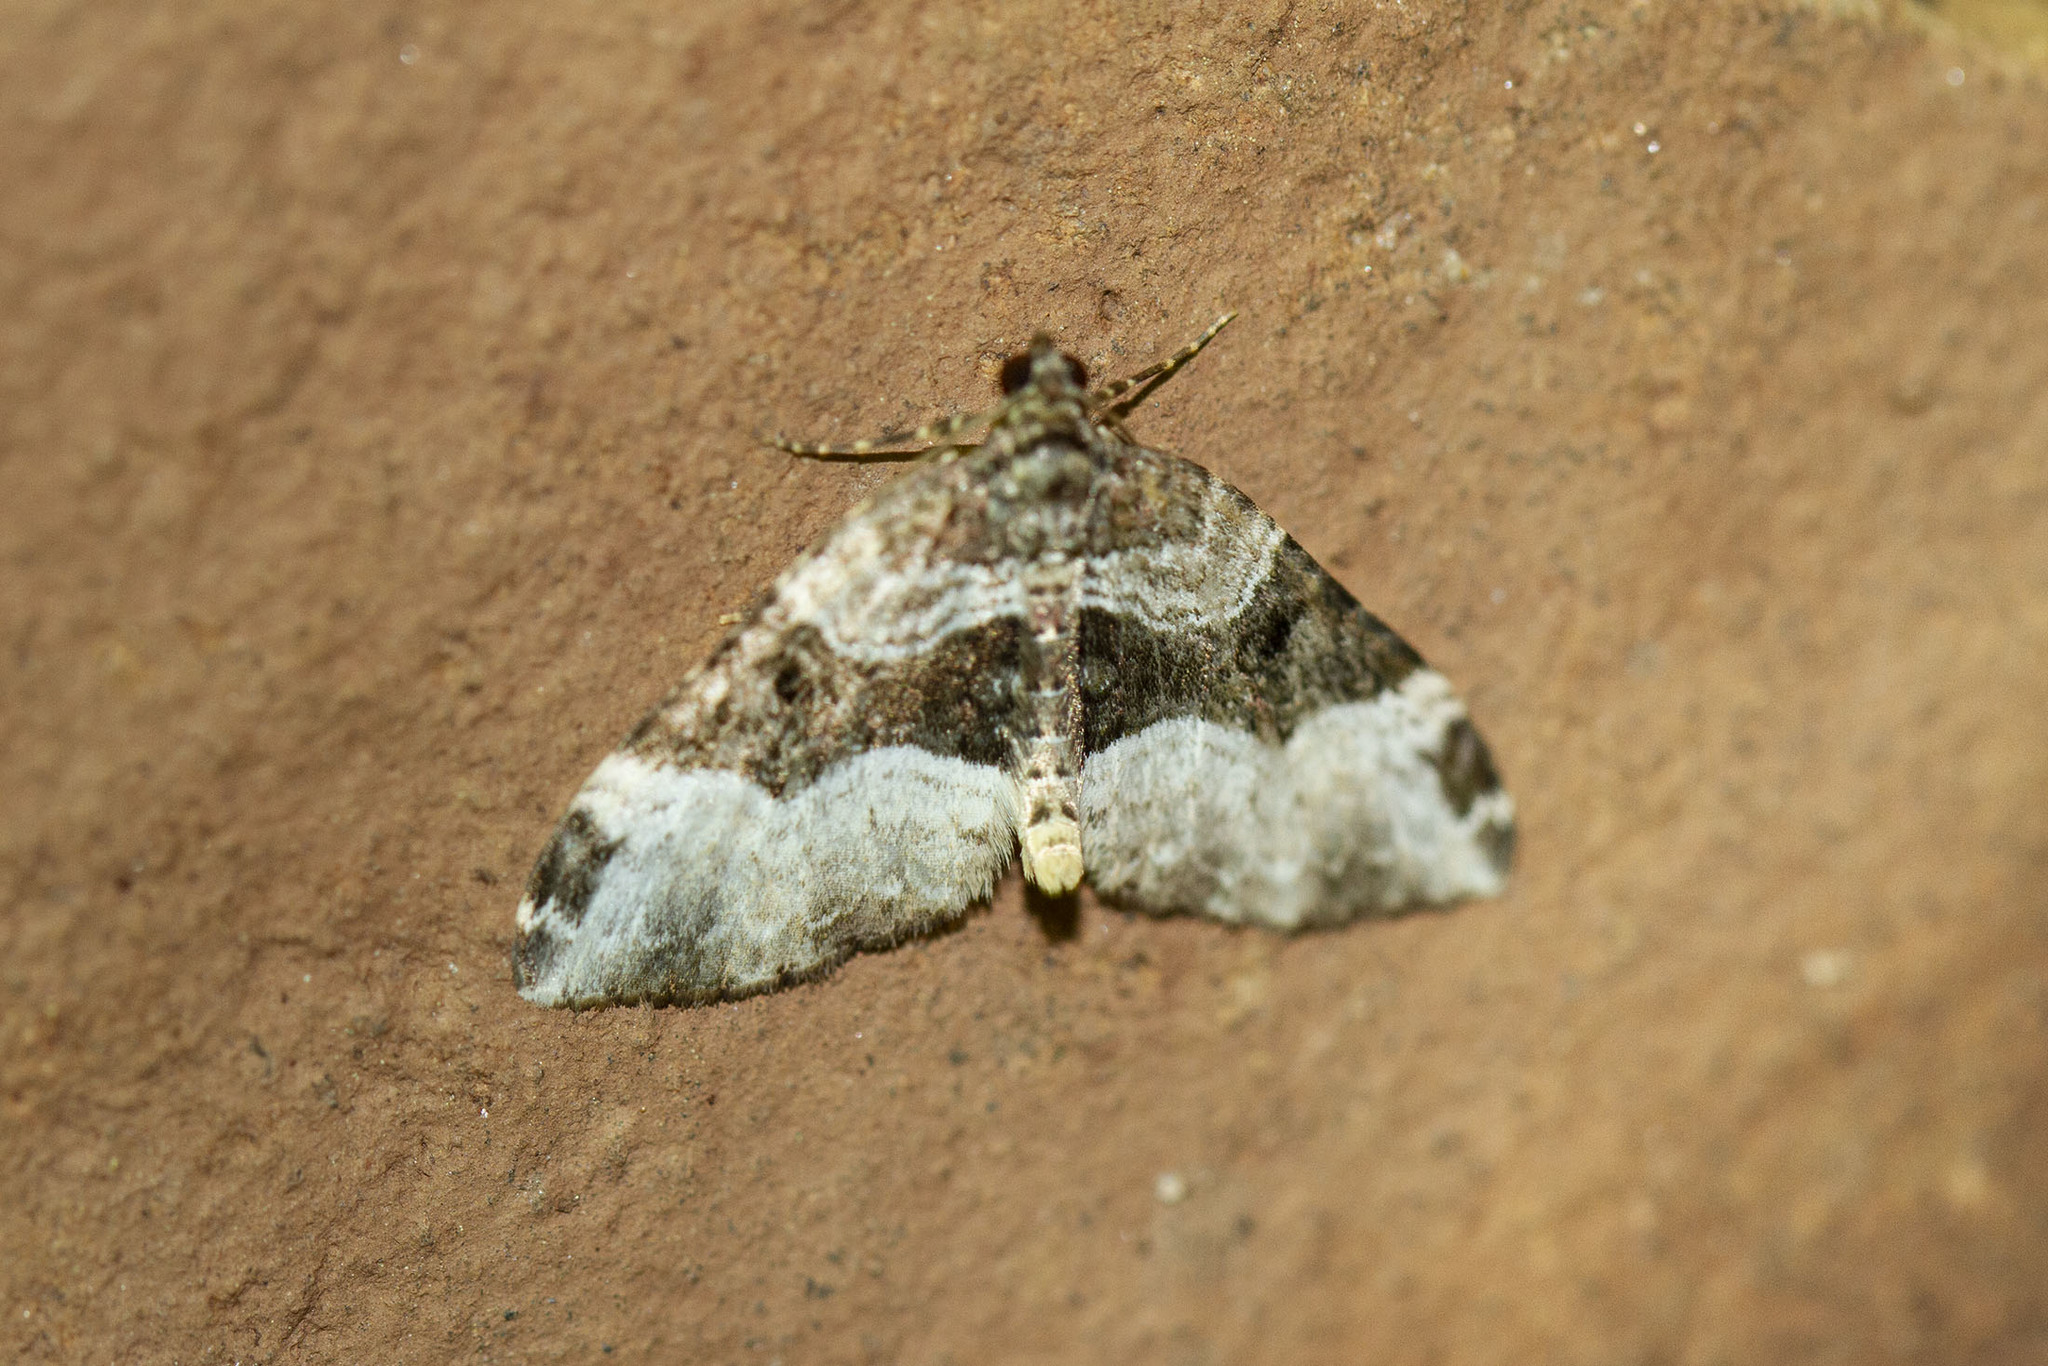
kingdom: Animalia
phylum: Arthropoda
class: Insecta
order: Lepidoptera
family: Geometridae
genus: Euphyia
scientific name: Euphyia intermediata
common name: Sharp-angled carpet
